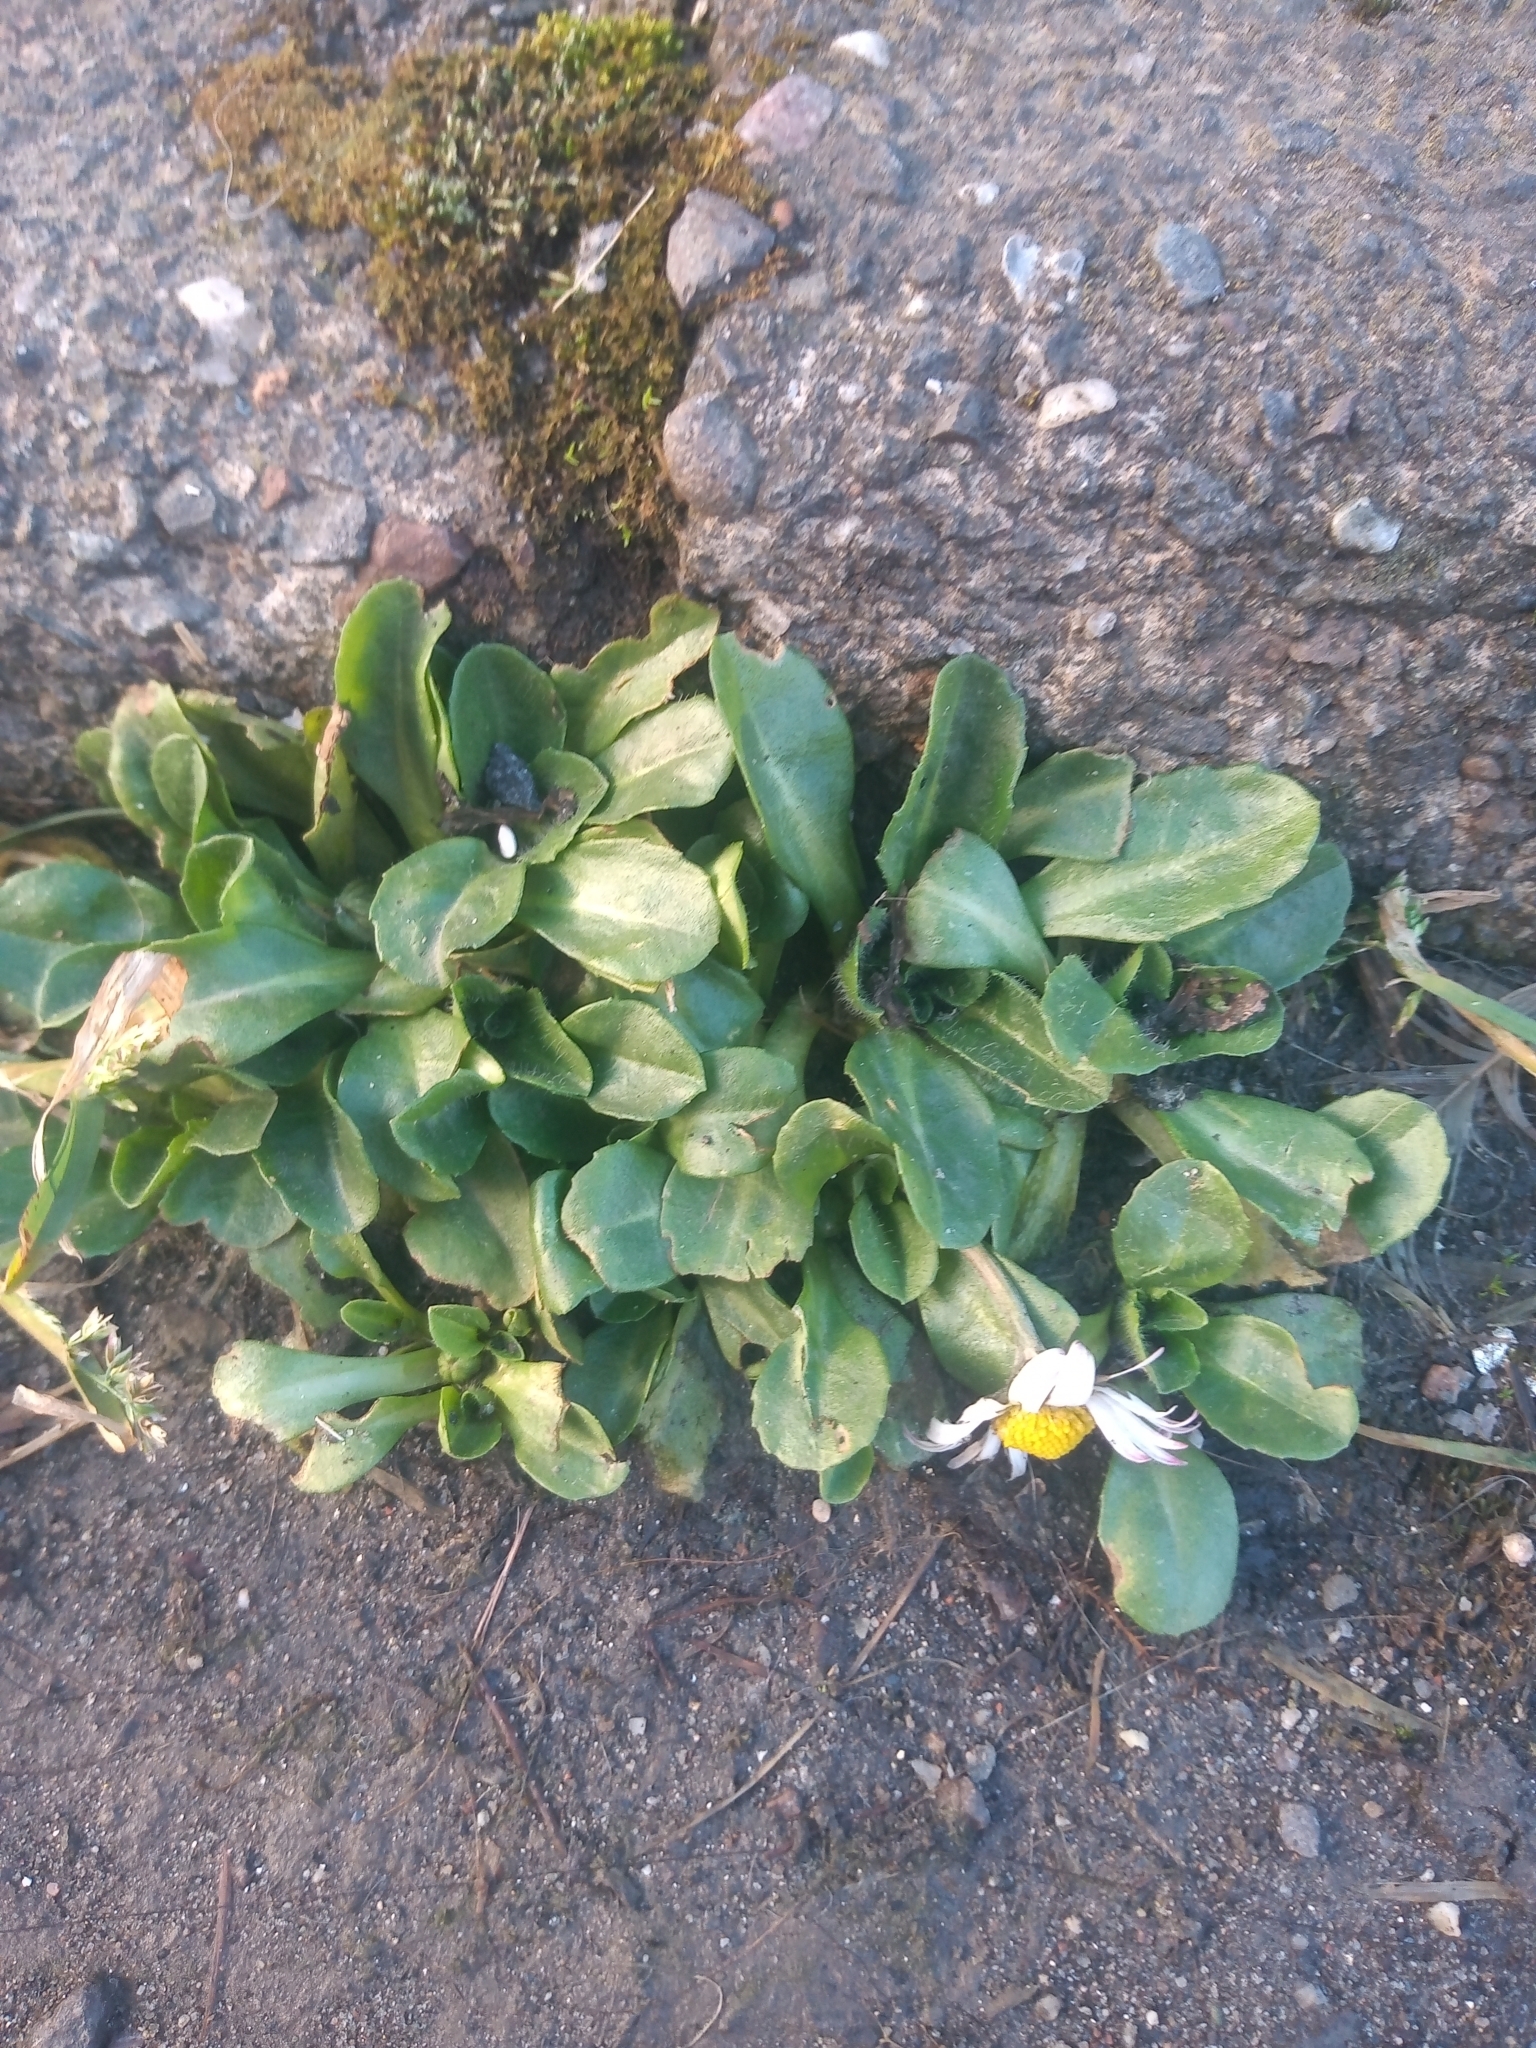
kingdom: Plantae
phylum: Tracheophyta
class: Magnoliopsida
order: Asterales
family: Asteraceae
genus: Bellis
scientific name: Bellis perennis
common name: Lawndaisy
